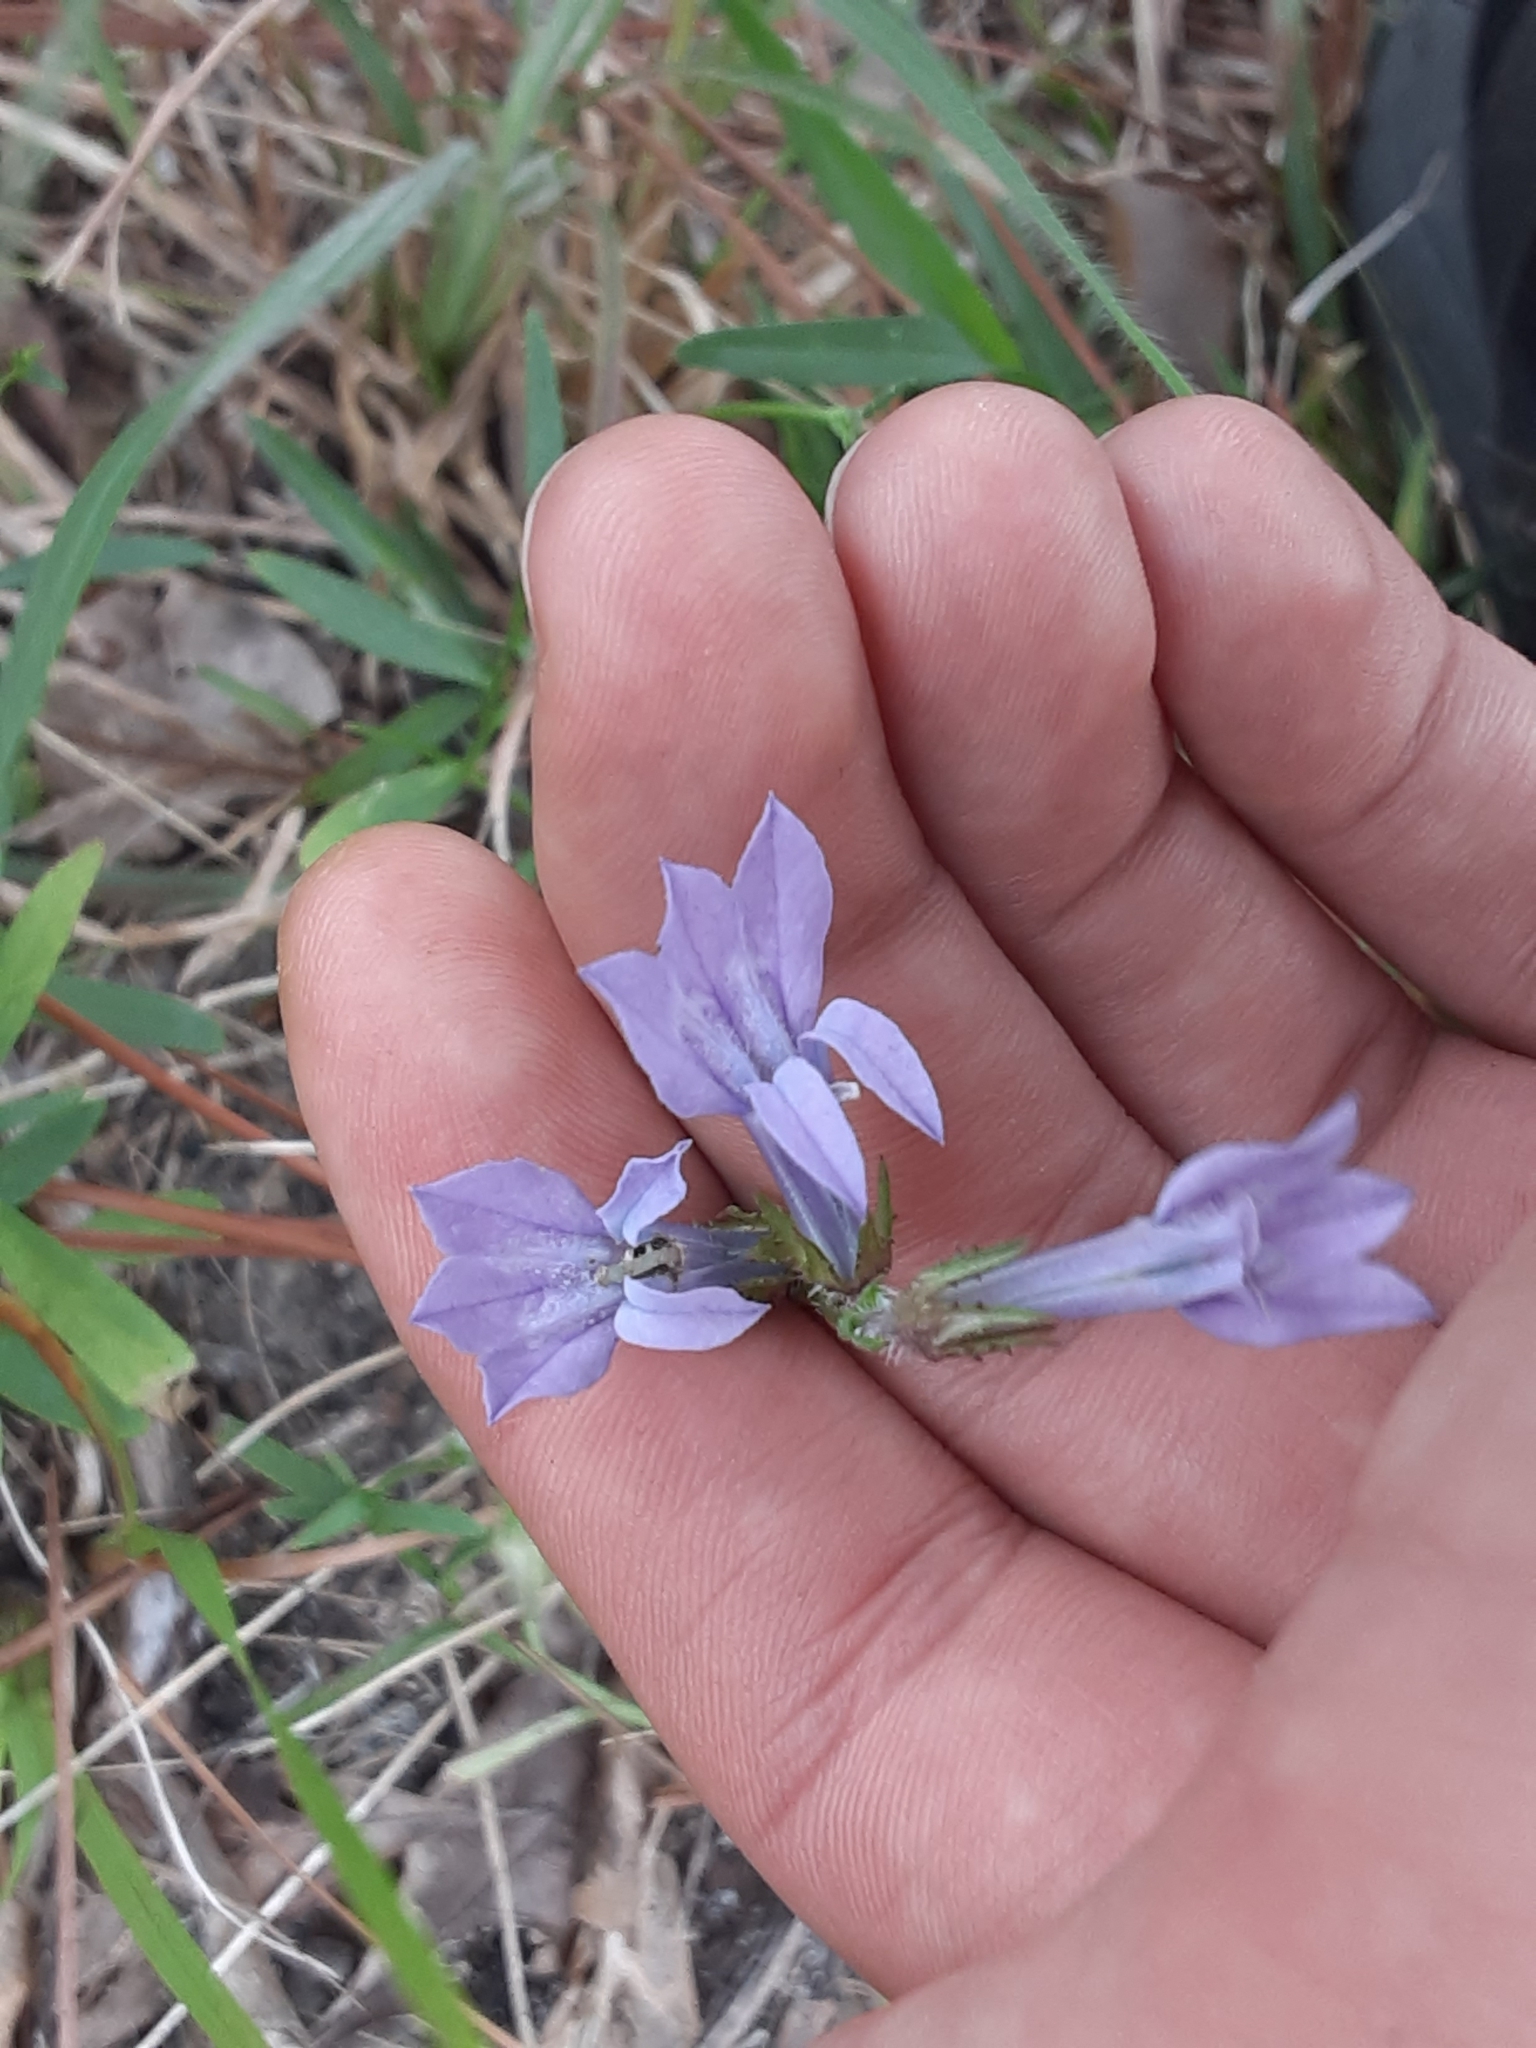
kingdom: Plantae
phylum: Tracheophyta
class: Magnoliopsida
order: Asterales
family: Campanulaceae
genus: Lobelia
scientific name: Lobelia glandulosa
